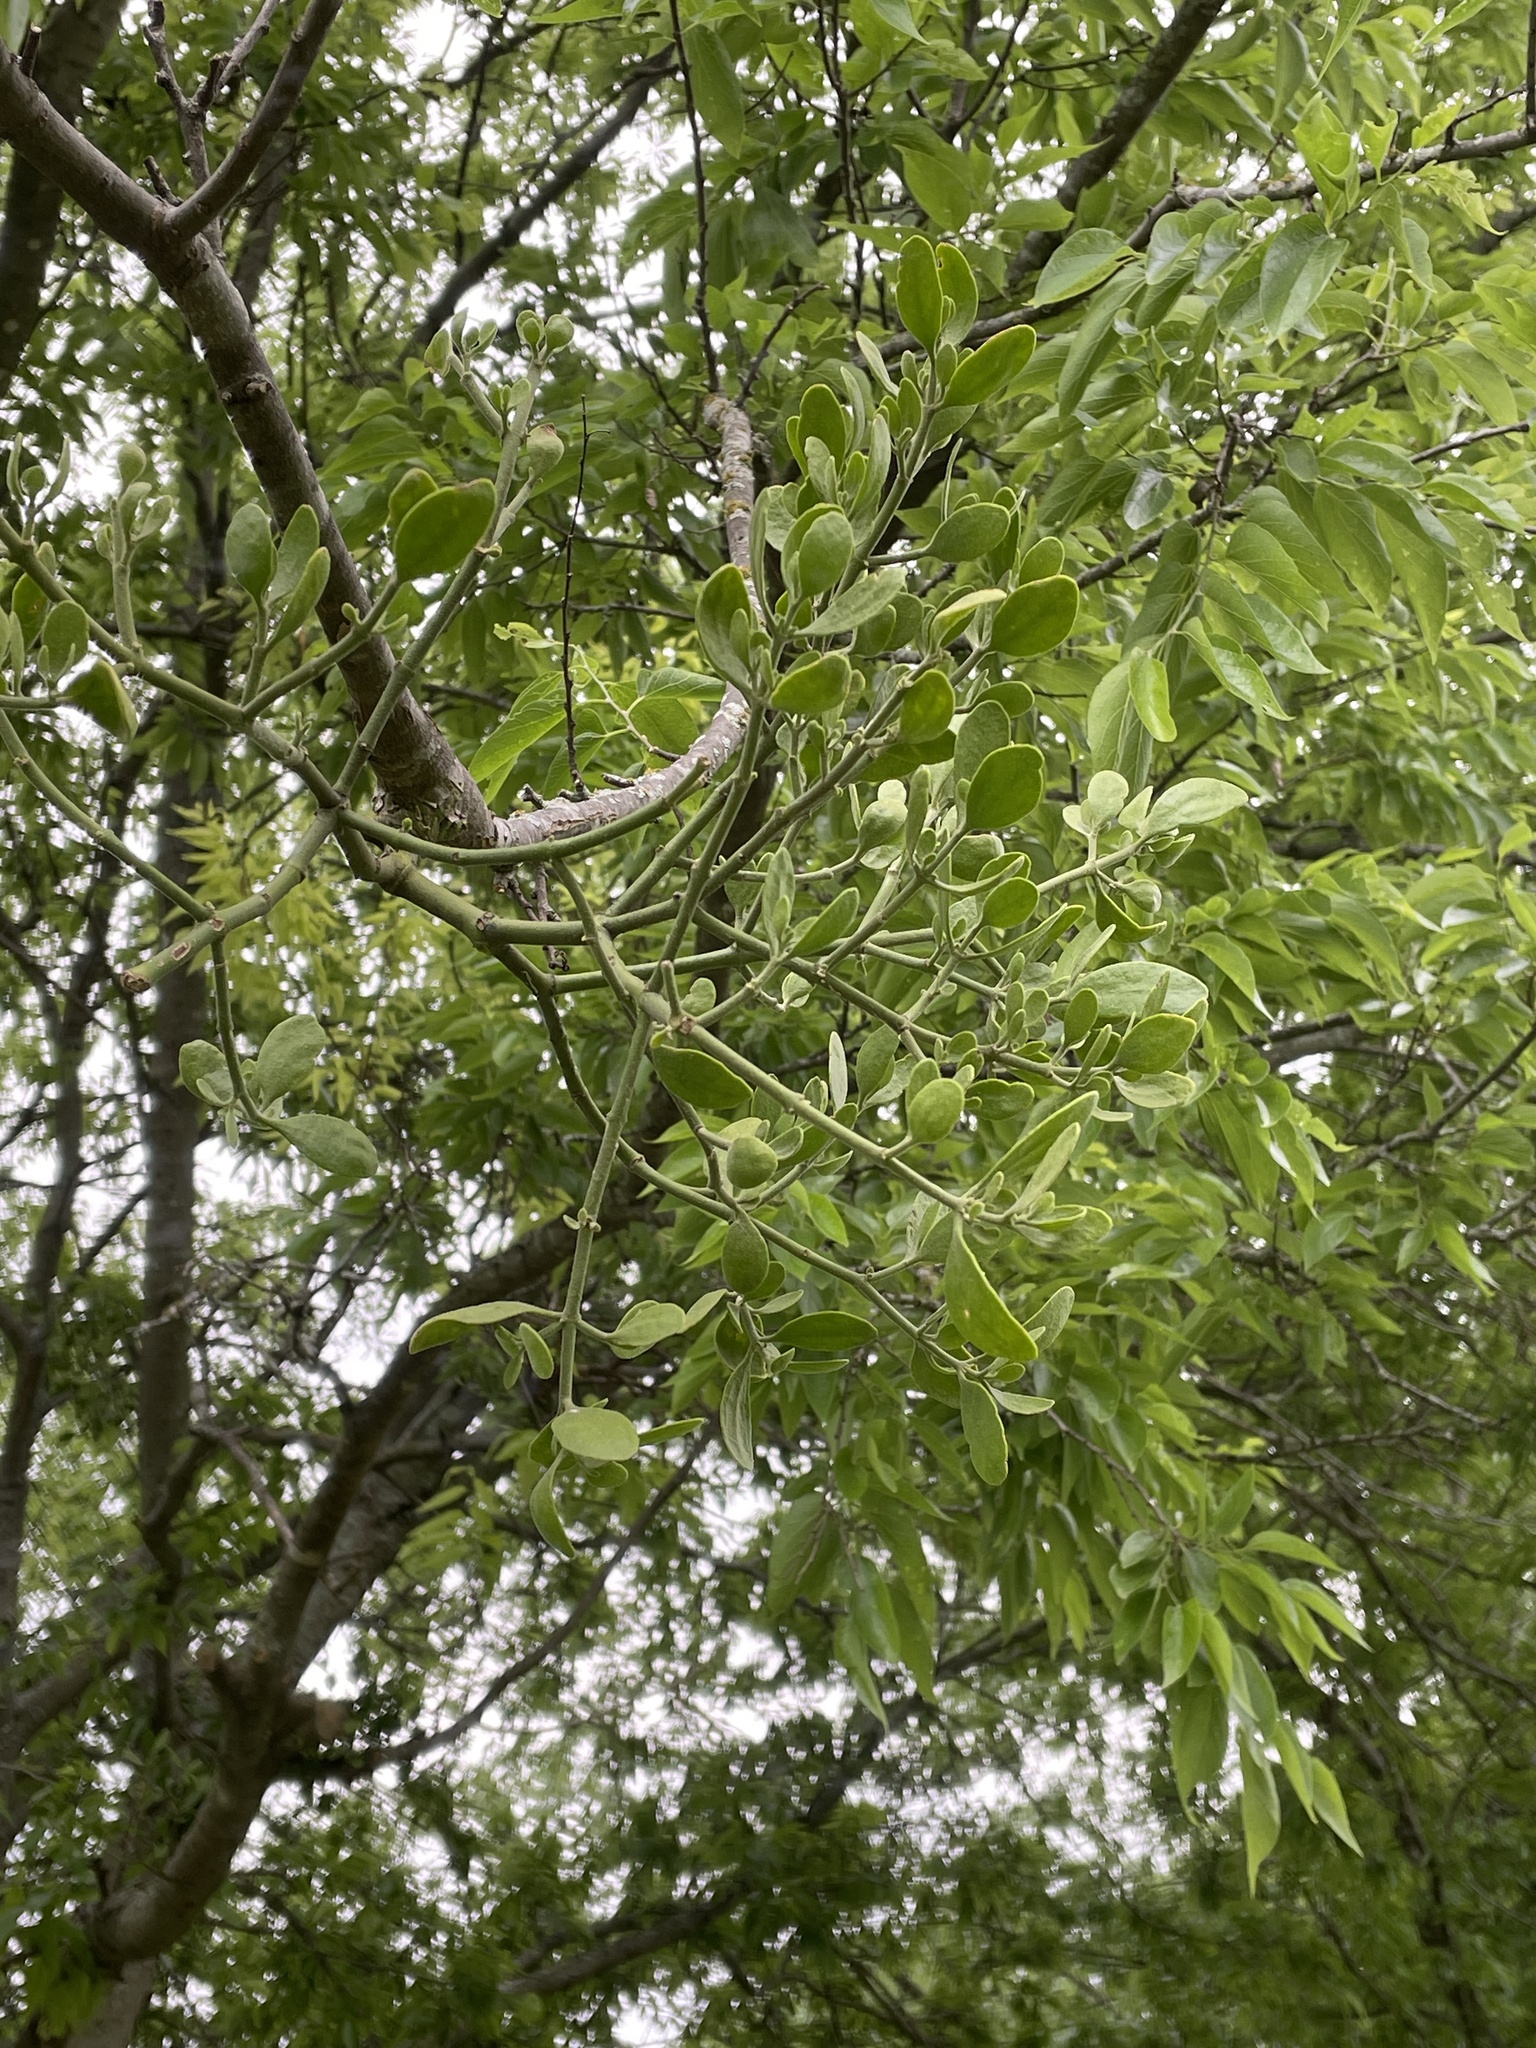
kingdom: Plantae
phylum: Tracheophyta
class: Magnoliopsida
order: Santalales
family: Viscaceae
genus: Phoradendron
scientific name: Phoradendron leucarpum
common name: Pacific mistletoe
